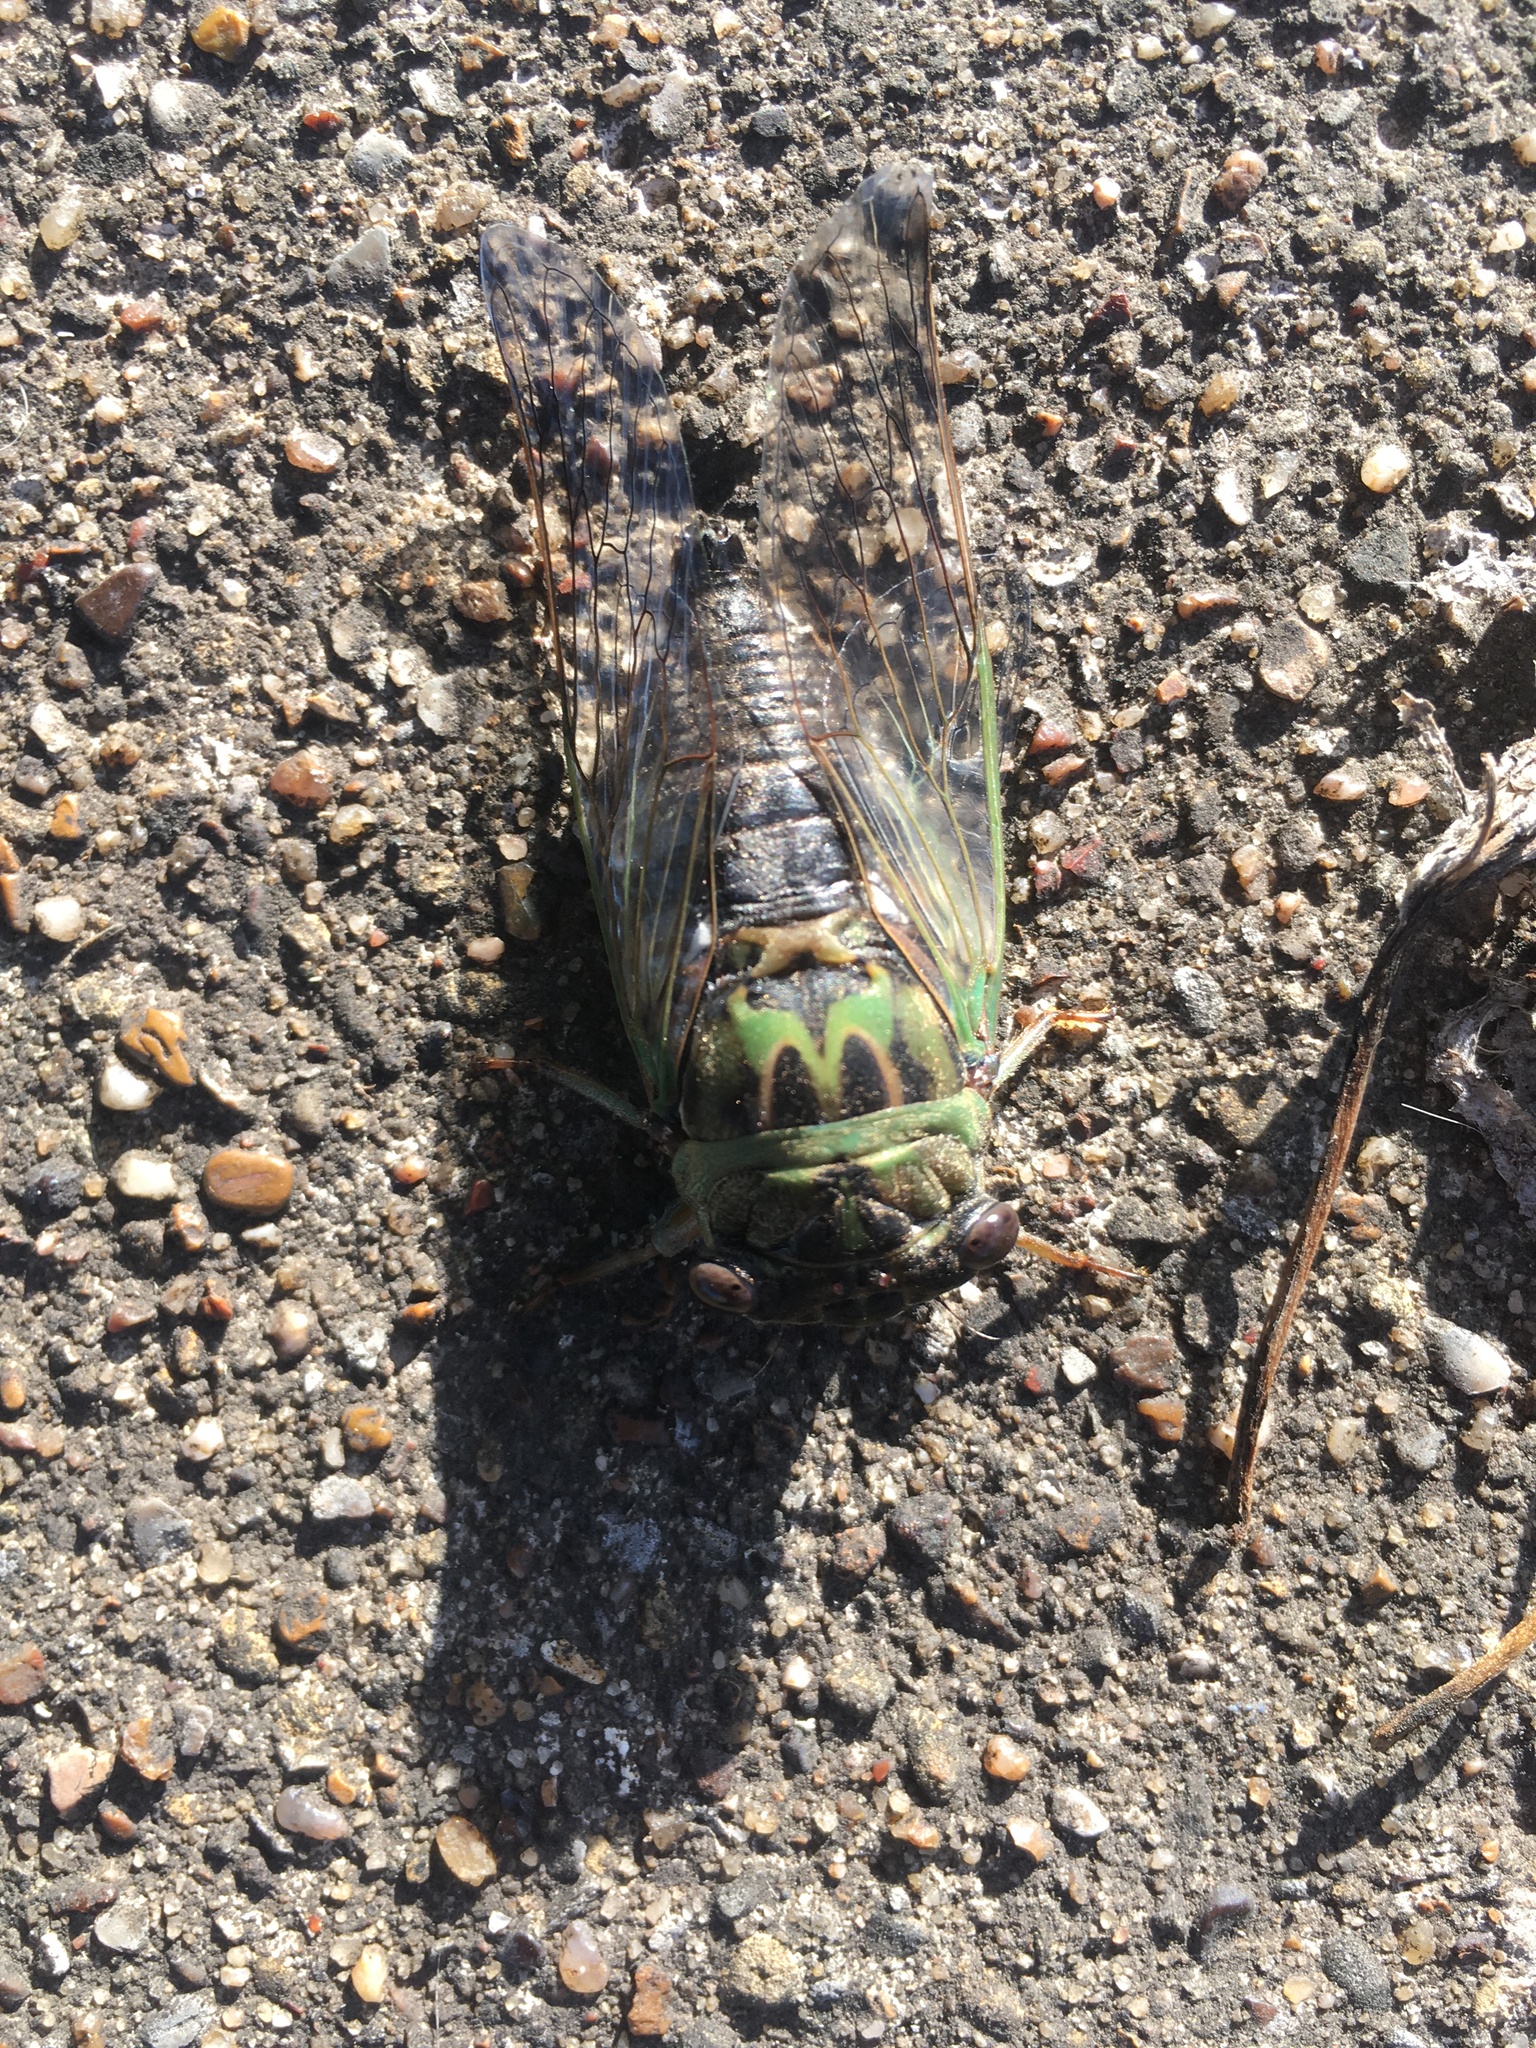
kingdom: Animalia
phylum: Arthropoda
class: Insecta
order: Hemiptera
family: Cicadidae
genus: Neotibicen
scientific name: Neotibicen pruinosus
